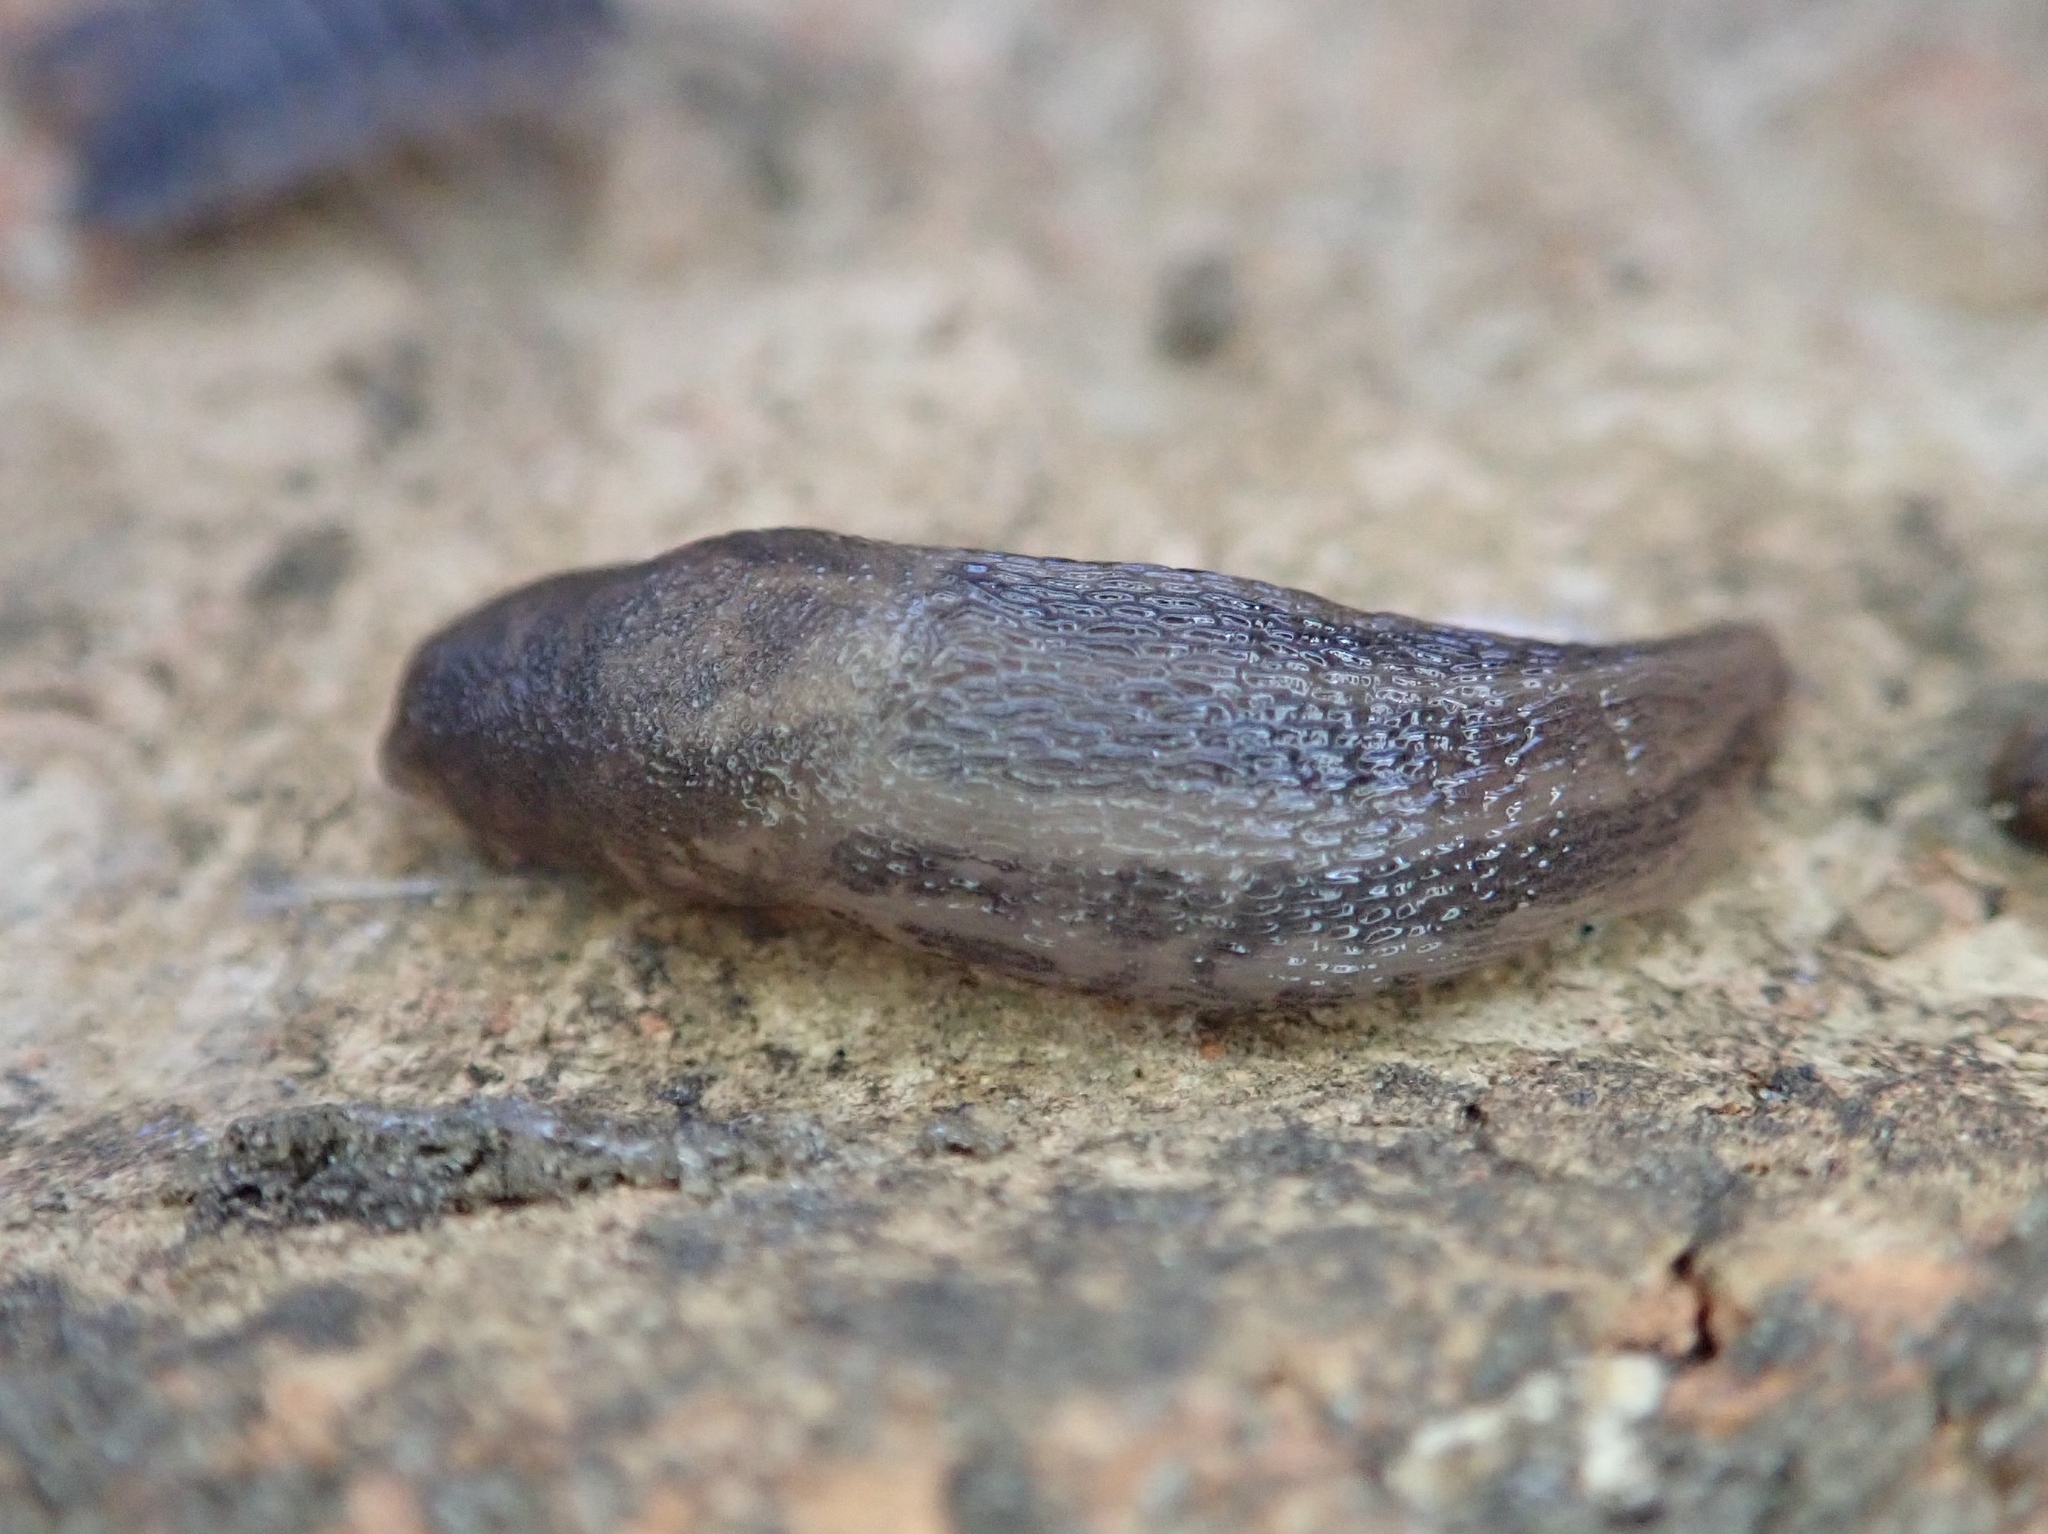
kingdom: Animalia
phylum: Mollusca
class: Gastropoda
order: Stylommatophora
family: Limacidae
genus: Limax
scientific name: Limax maximus
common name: Great grey slug
